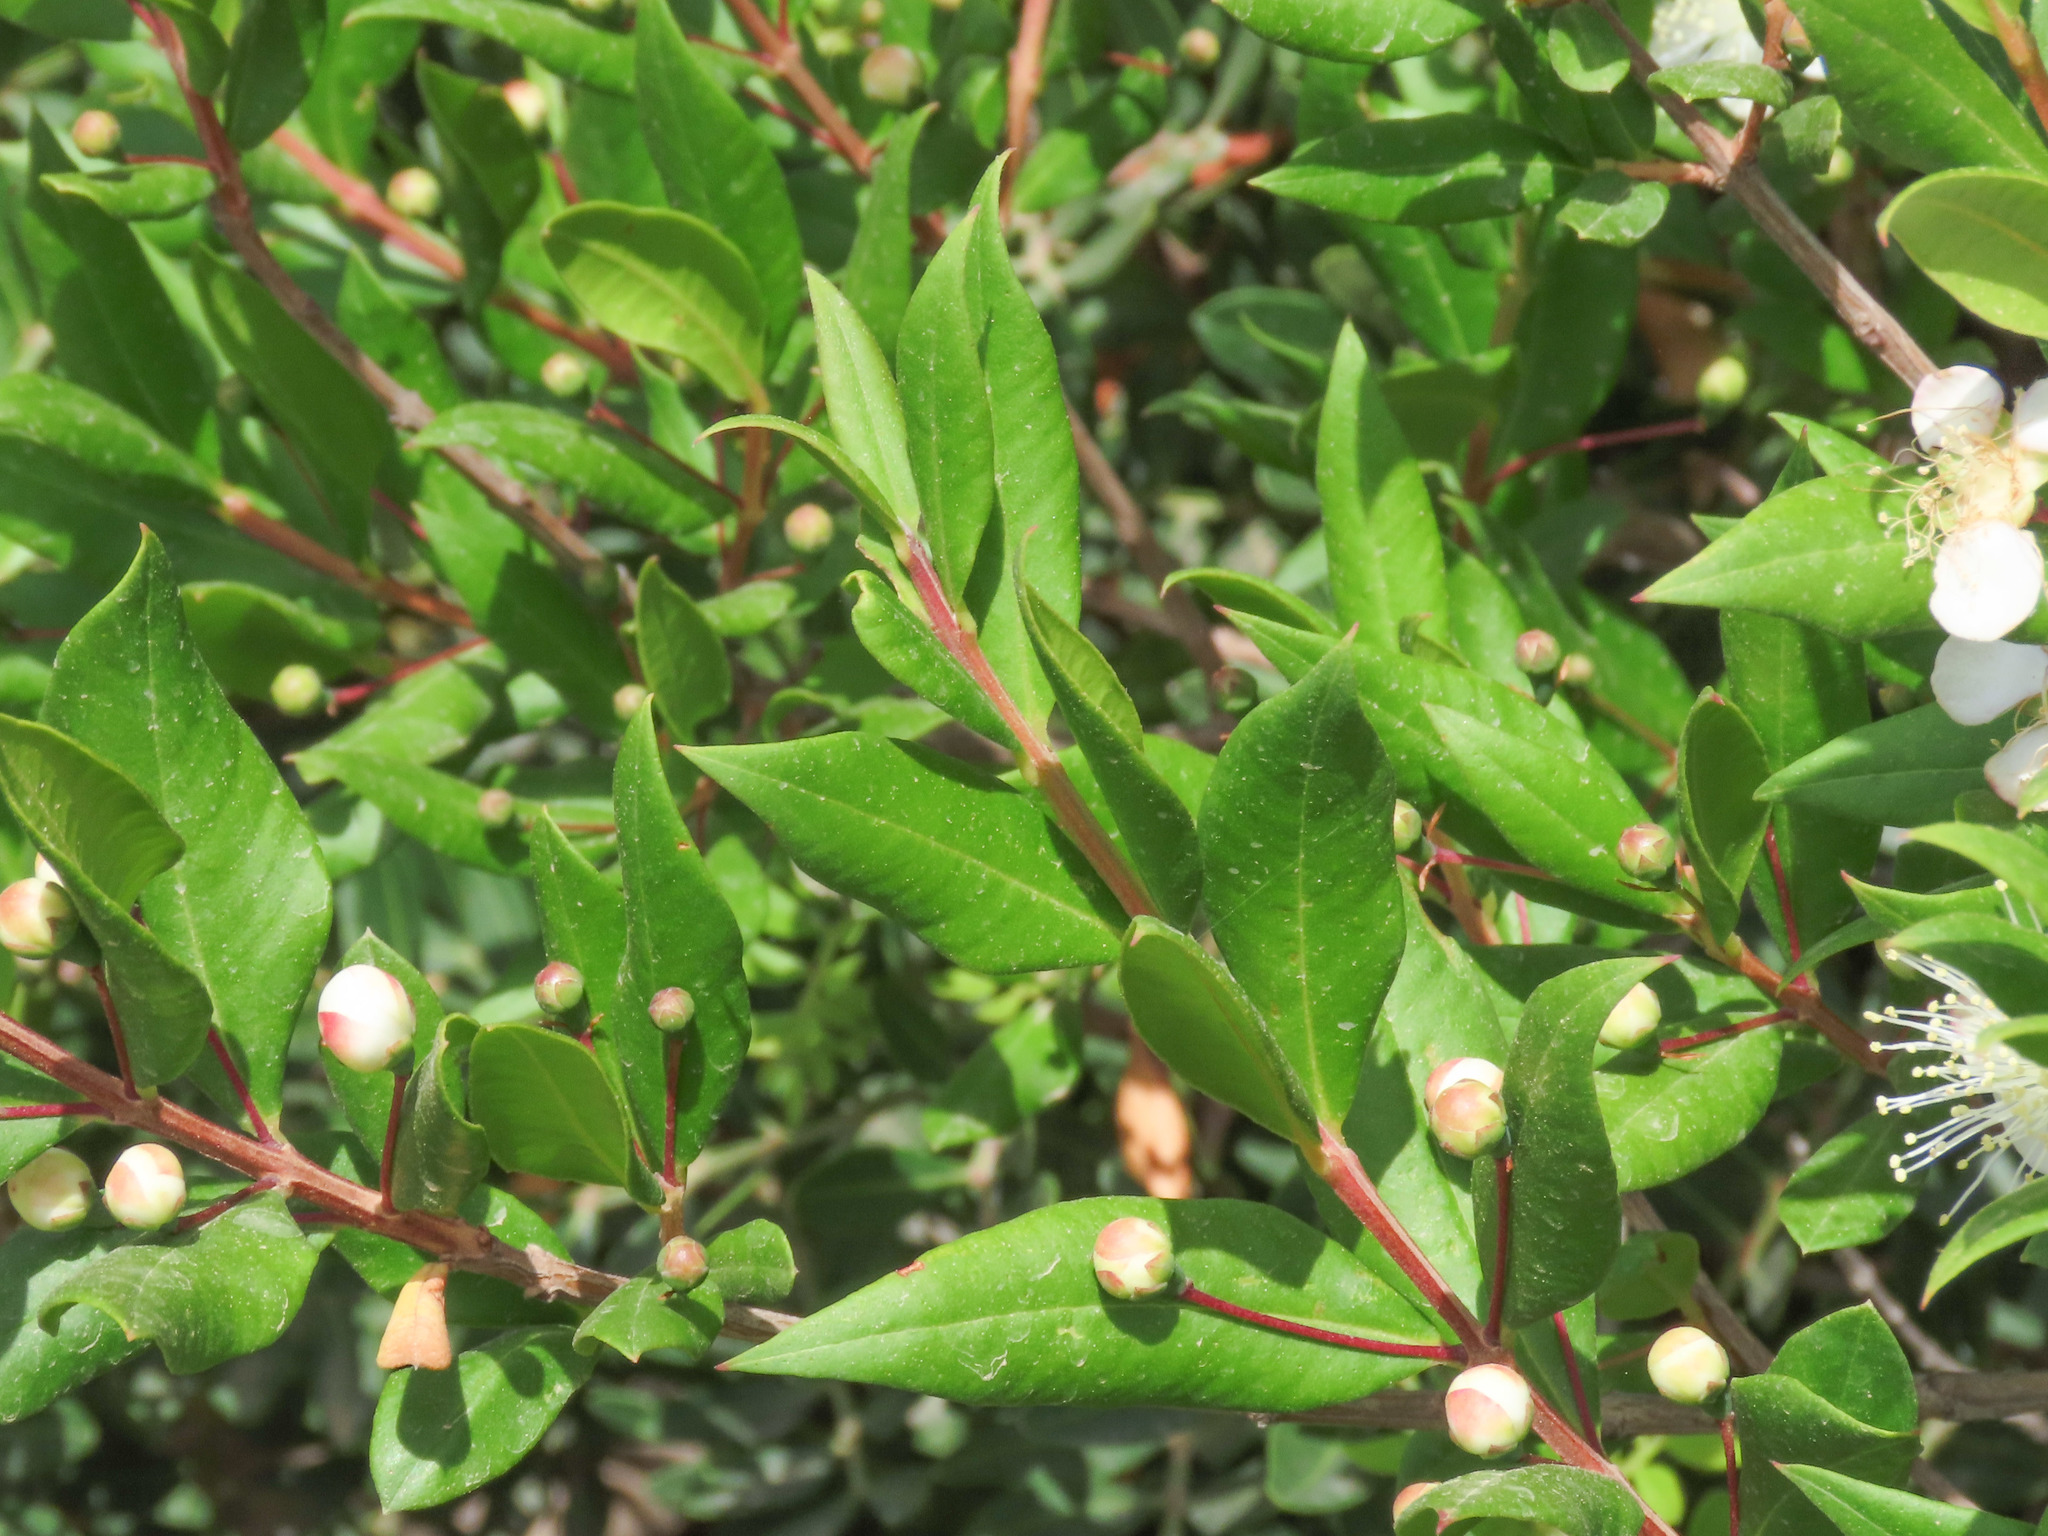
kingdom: Plantae
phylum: Tracheophyta
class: Magnoliopsida
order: Myrtales
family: Myrtaceae
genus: Myrtus
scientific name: Myrtus communis
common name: Myrtle
